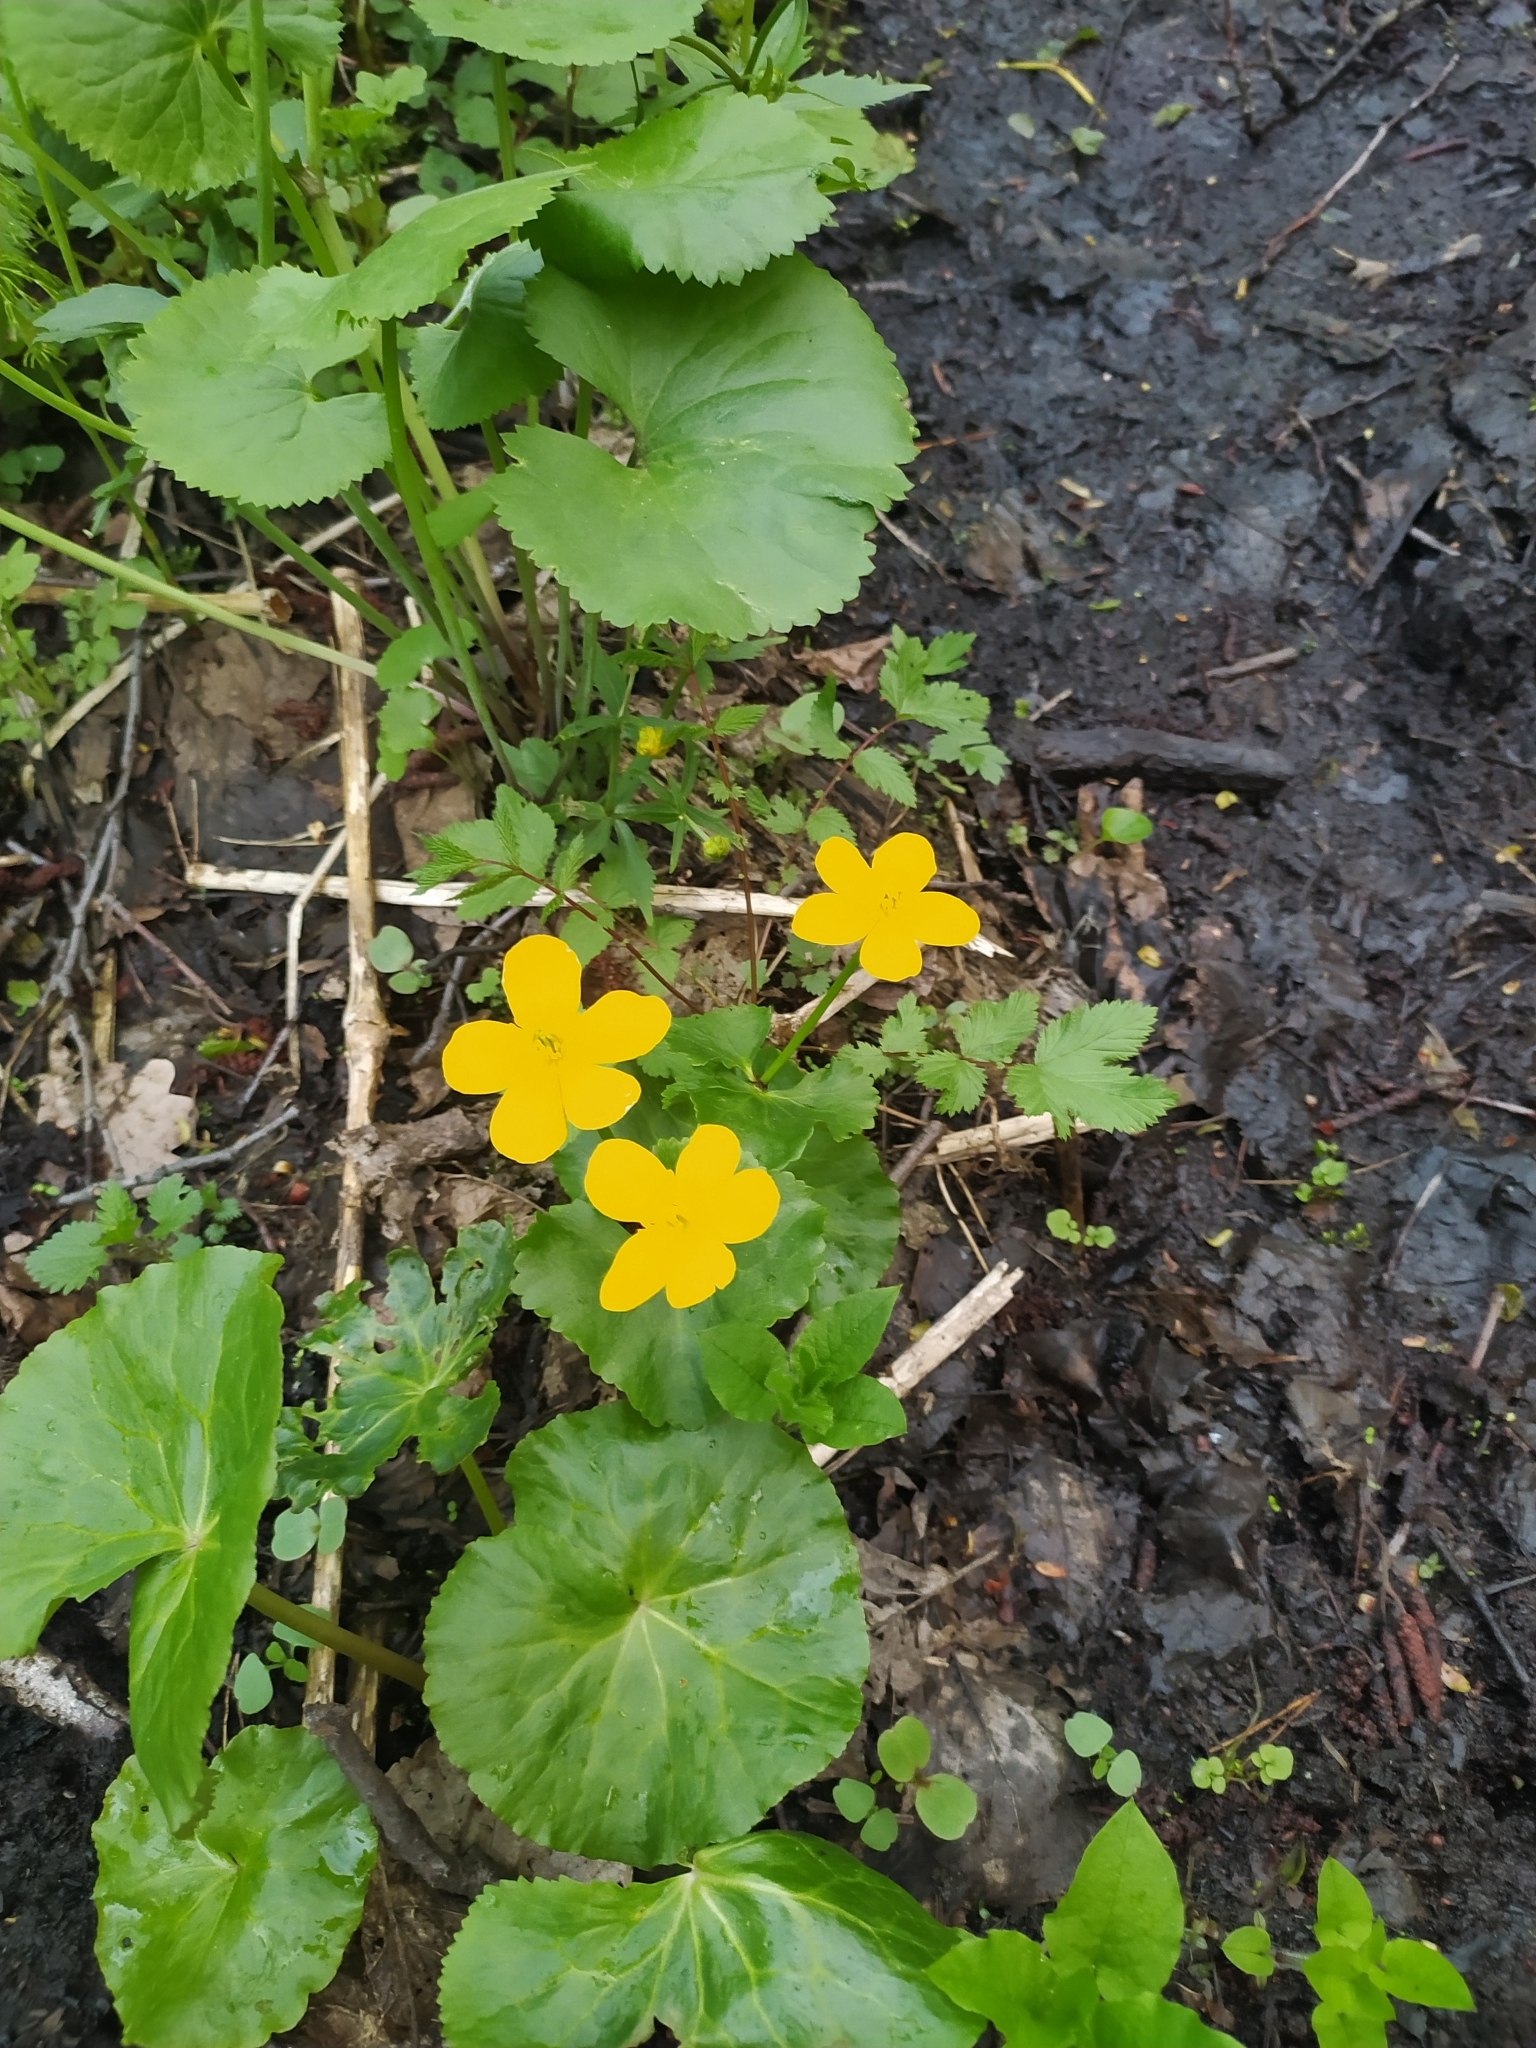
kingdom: Plantae
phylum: Tracheophyta
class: Magnoliopsida
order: Ranunculales
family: Ranunculaceae
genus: Caltha
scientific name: Caltha palustris
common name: Marsh marigold
